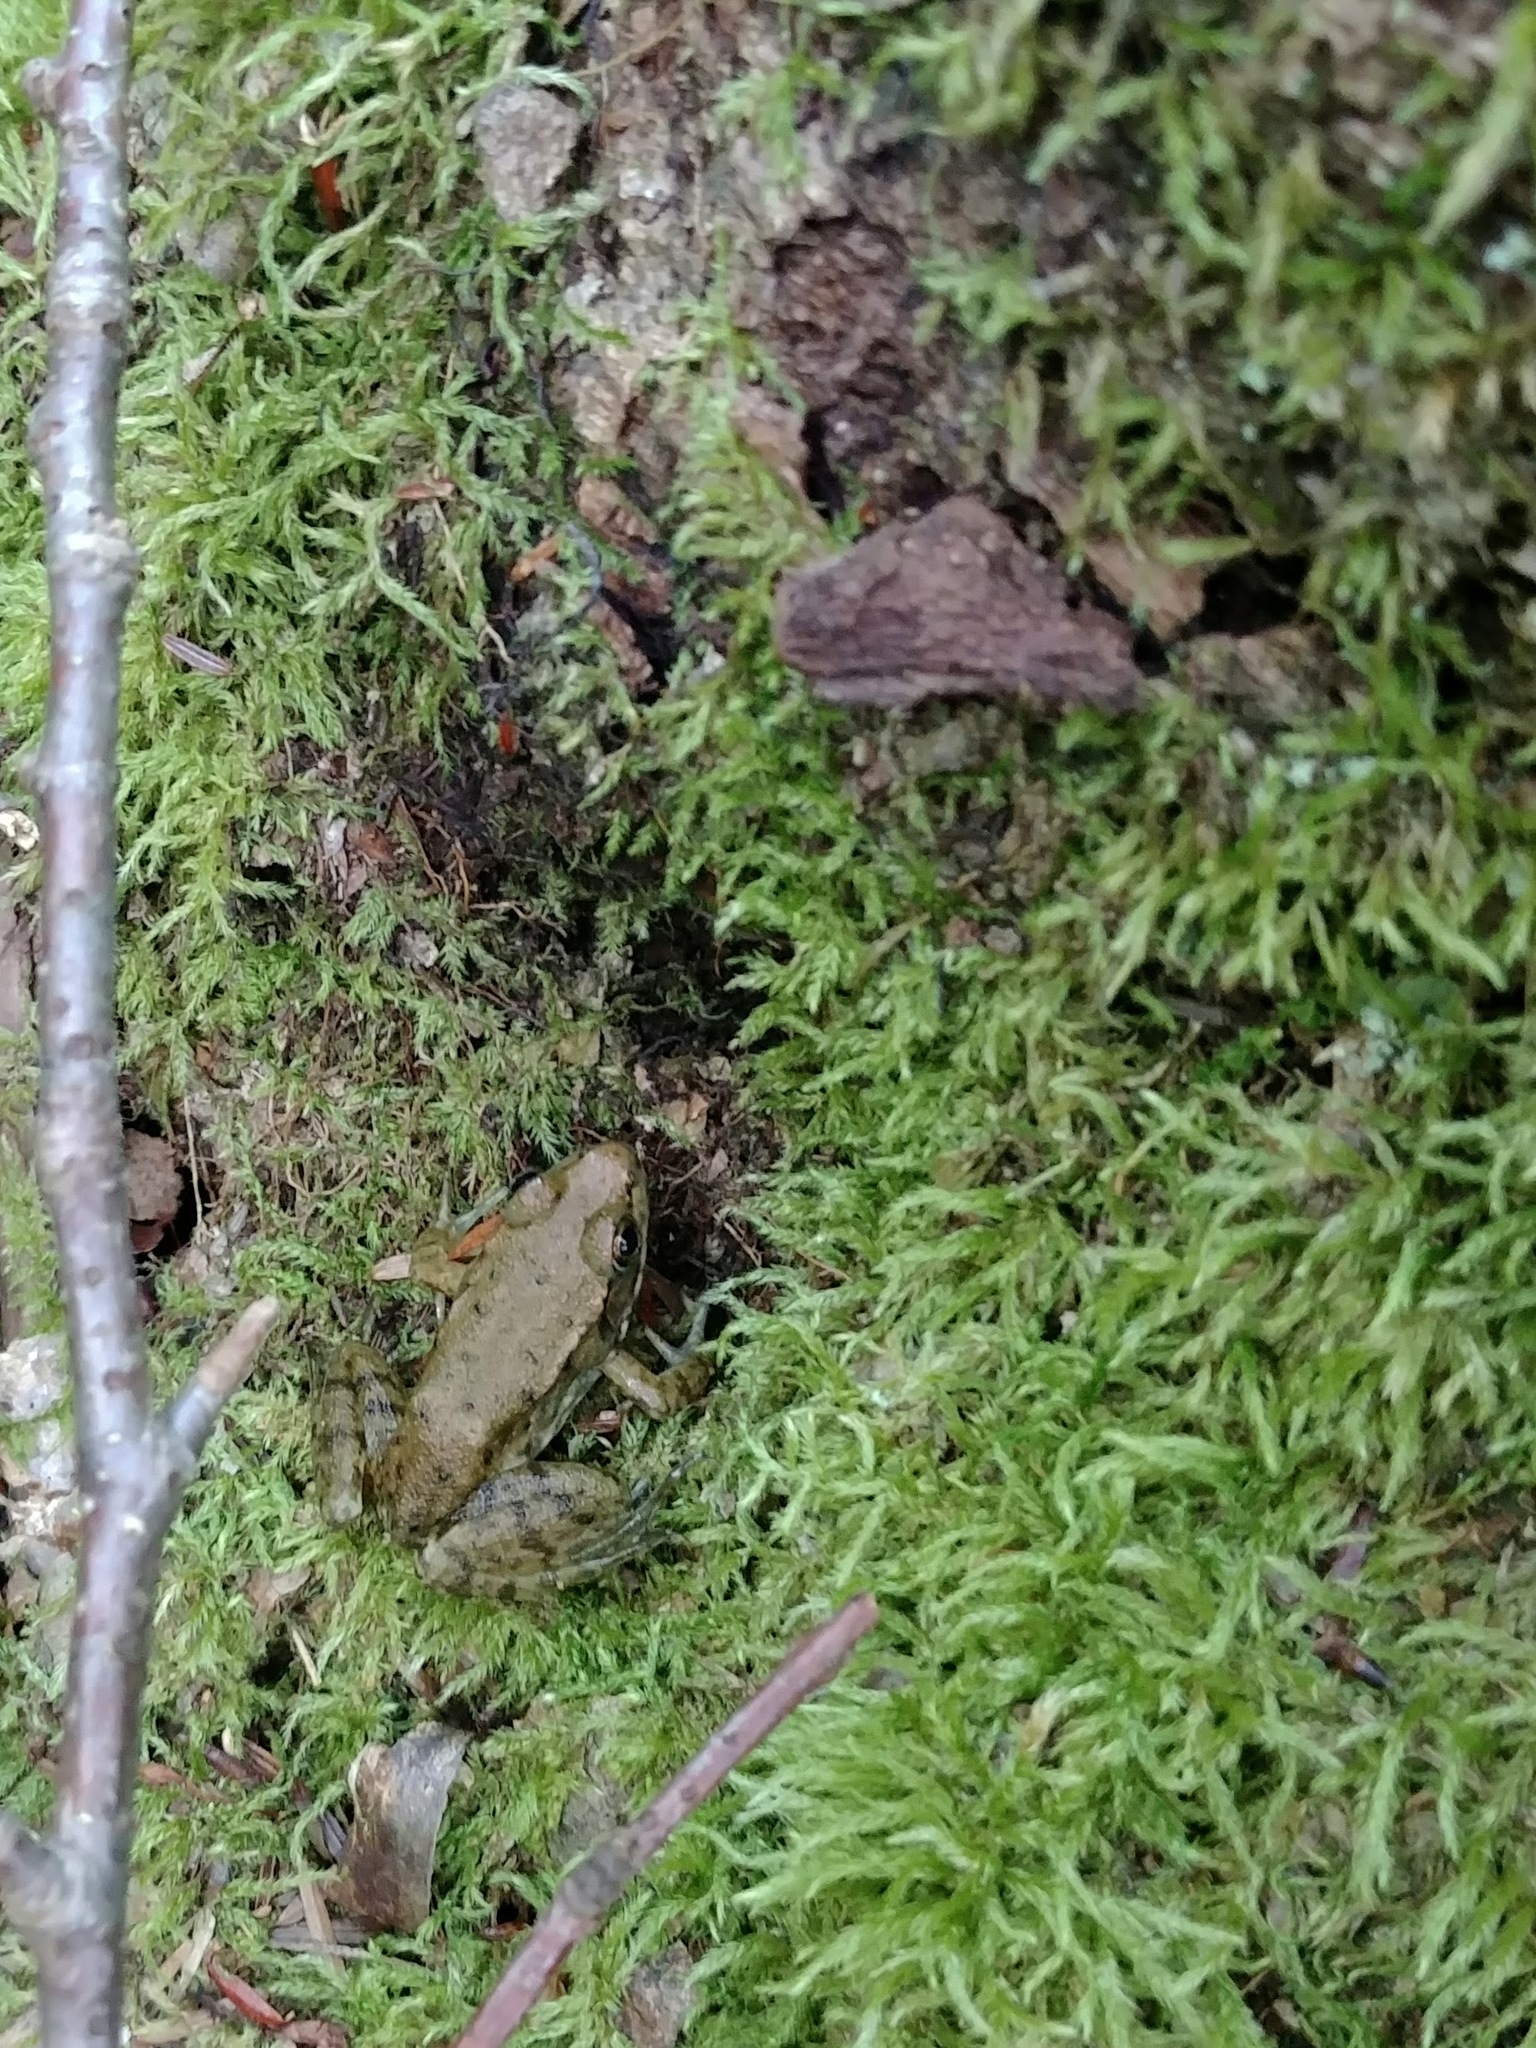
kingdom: Animalia
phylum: Chordata
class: Amphibia
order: Anura
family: Ranidae
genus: Lithobates
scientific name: Lithobates clamitans
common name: Green frog
